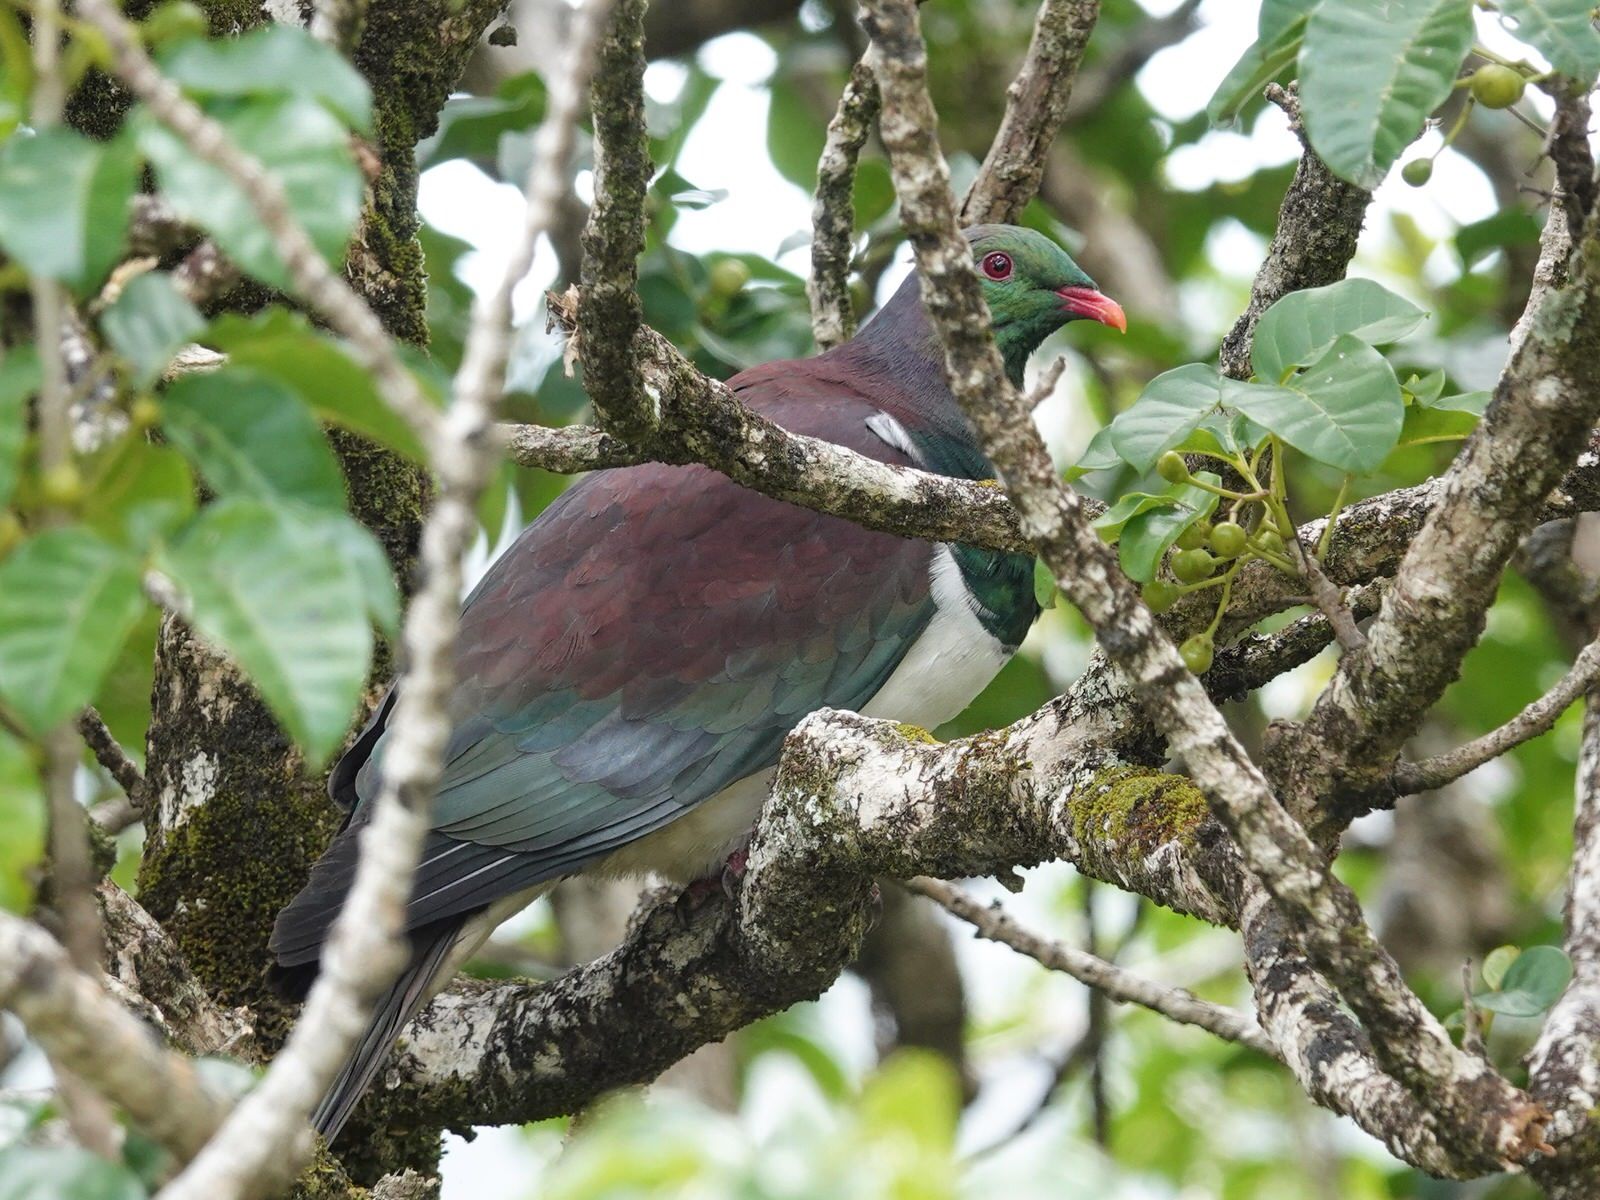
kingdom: Animalia
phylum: Chordata
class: Aves
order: Columbiformes
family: Columbidae
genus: Hemiphaga
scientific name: Hemiphaga novaeseelandiae
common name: New zealand pigeon
